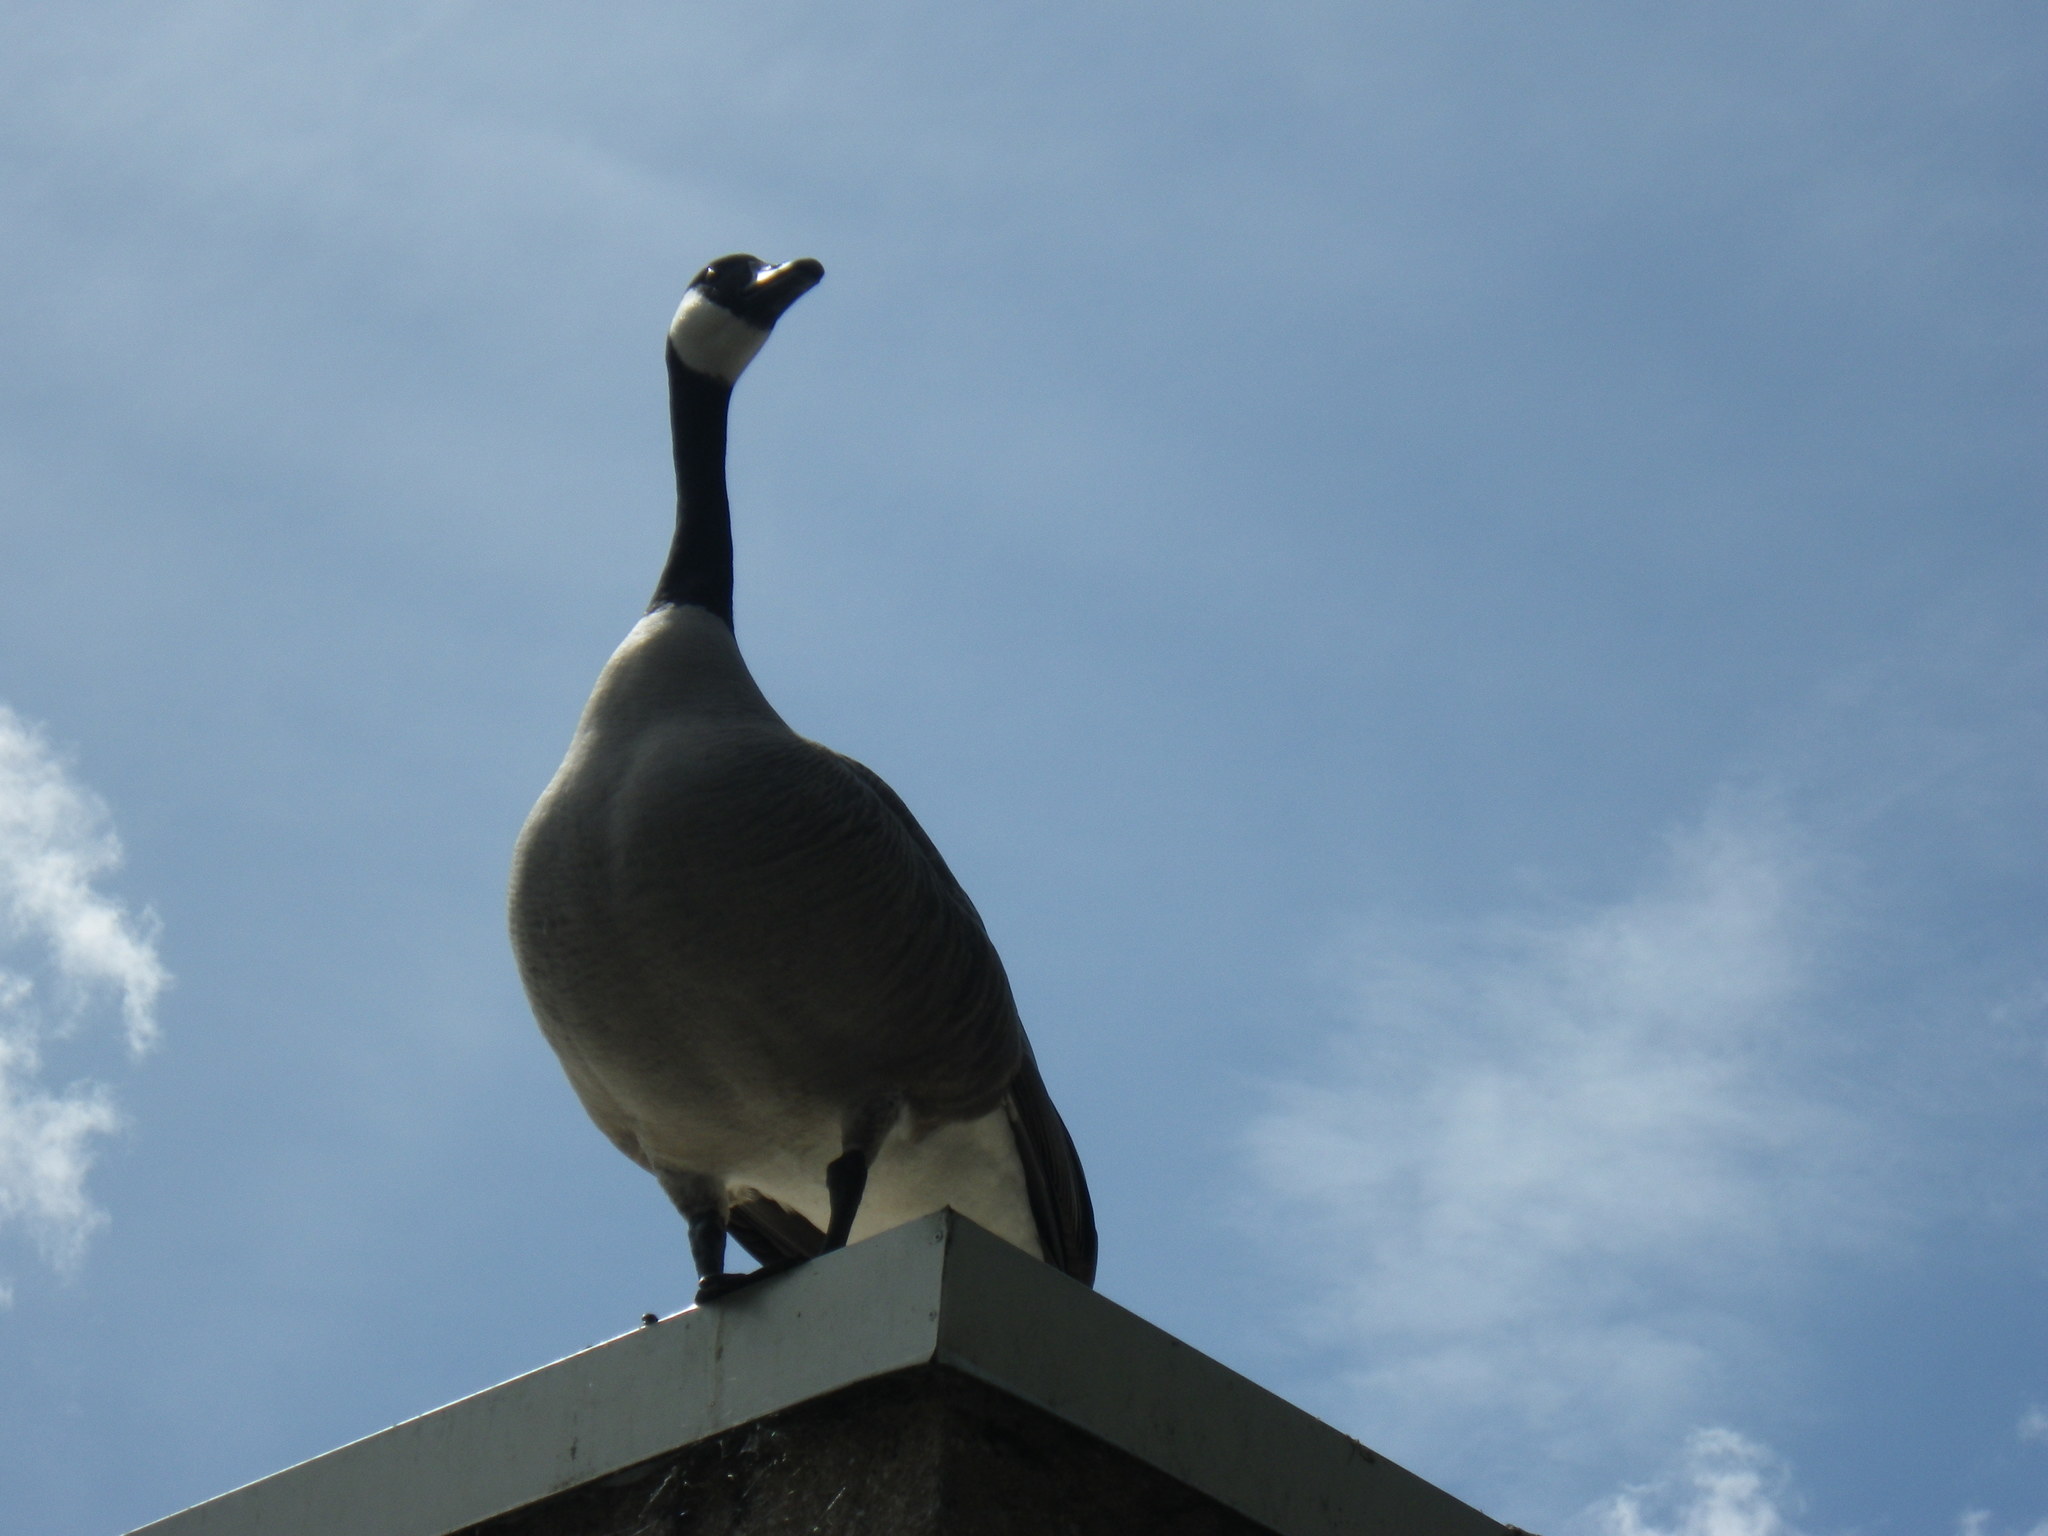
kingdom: Animalia
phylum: Chordata
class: Aves
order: Anseriformes
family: Anatidae
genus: Branta
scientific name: Branta canadensis
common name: Canada goose
